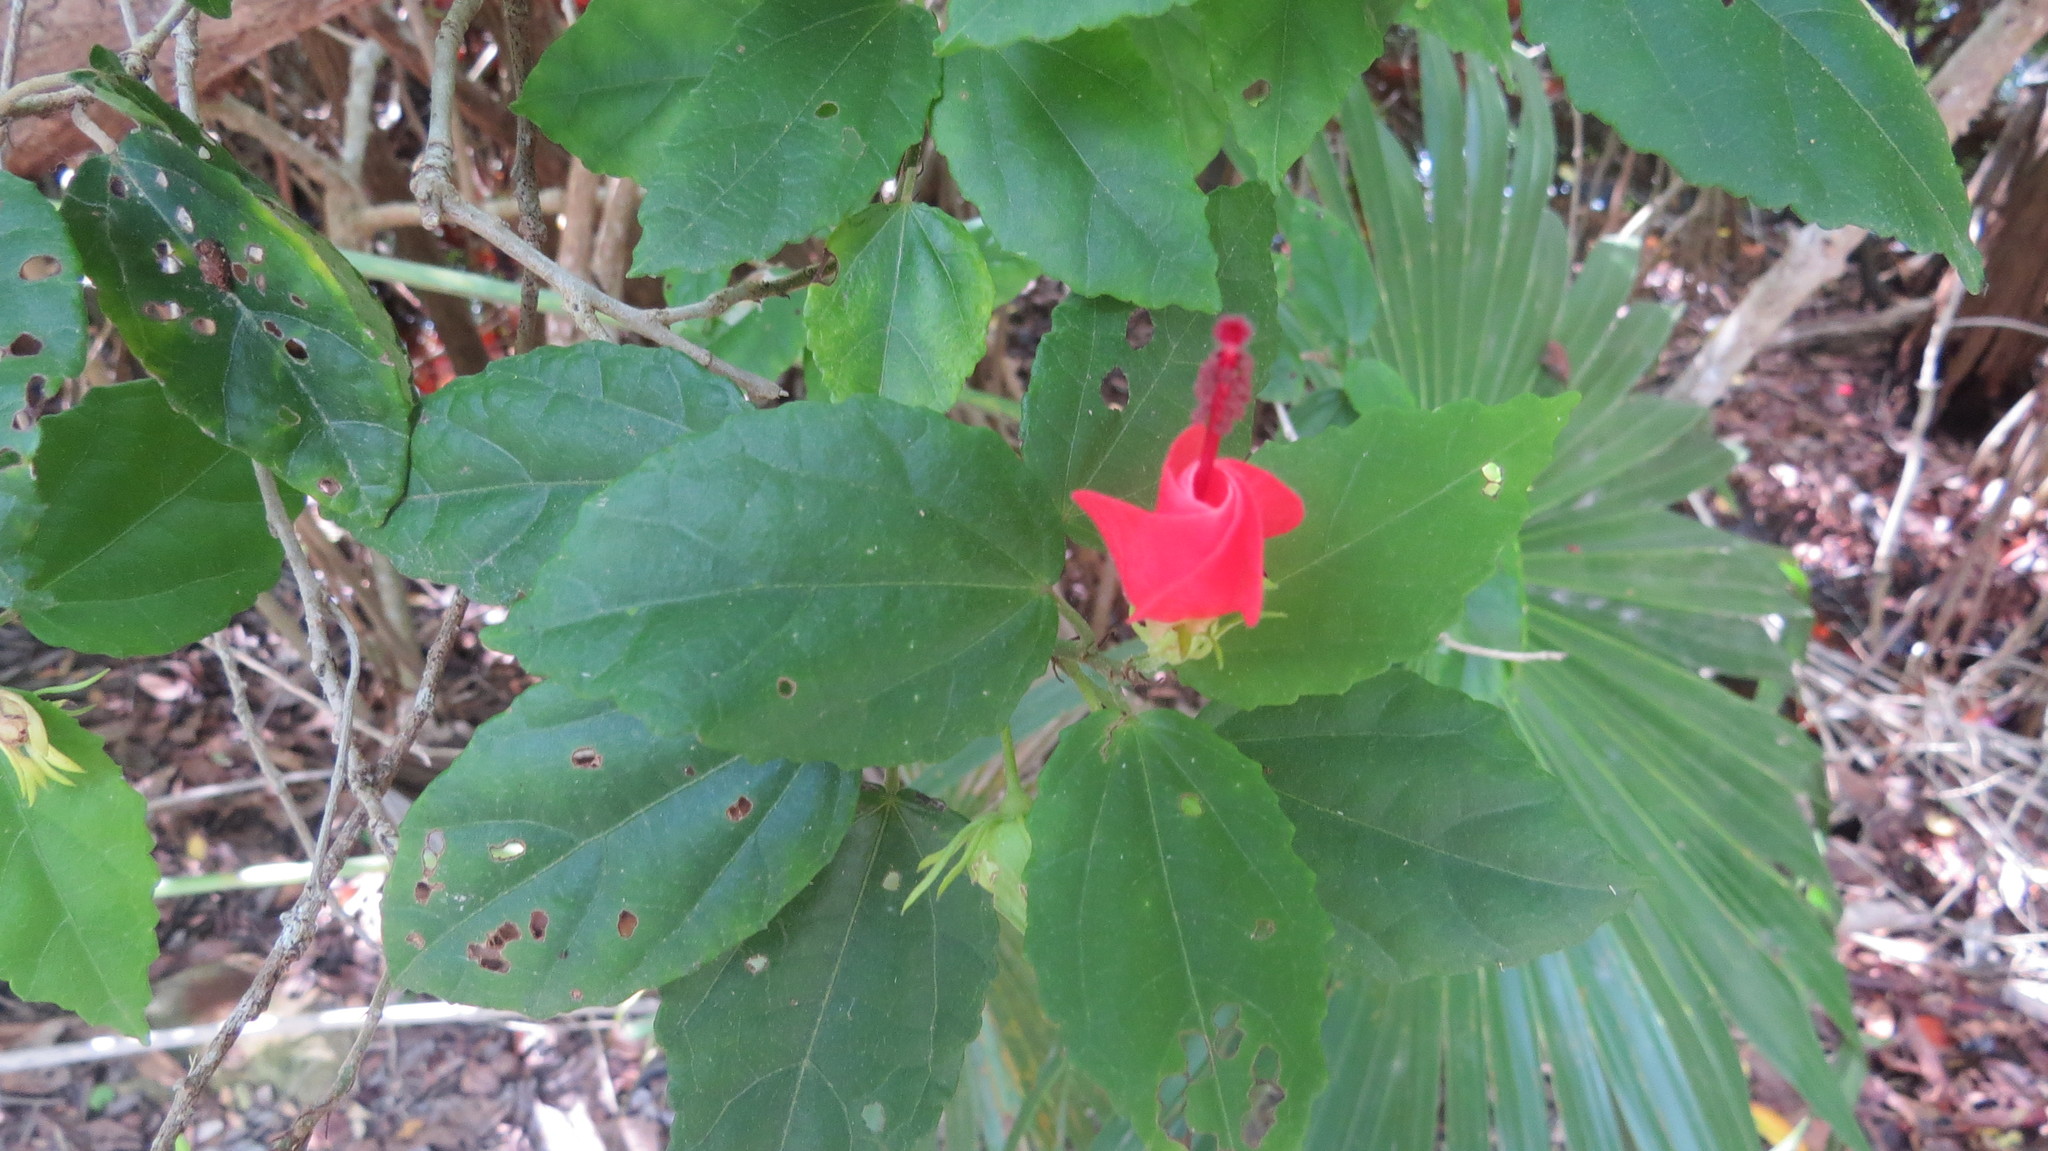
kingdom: Plantae
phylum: Tracheophyta
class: Magnoliopsida
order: Malvales
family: Malvaceae
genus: Malvaviscus
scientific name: Malvaviscus arboreus
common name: Wax mallow
